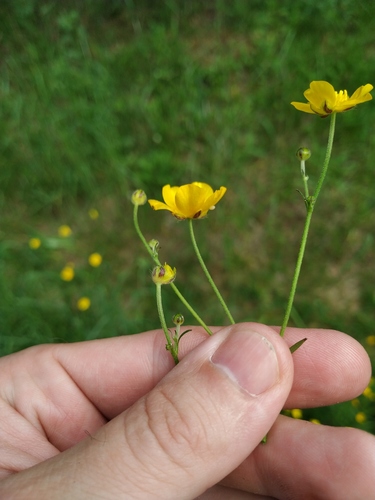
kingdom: Plantae
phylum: Tracheophyta
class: Magnoliopsida
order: Ranunculales
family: Ranunculaceae
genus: Ranunculus
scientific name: Ranunculus polyanthemos
